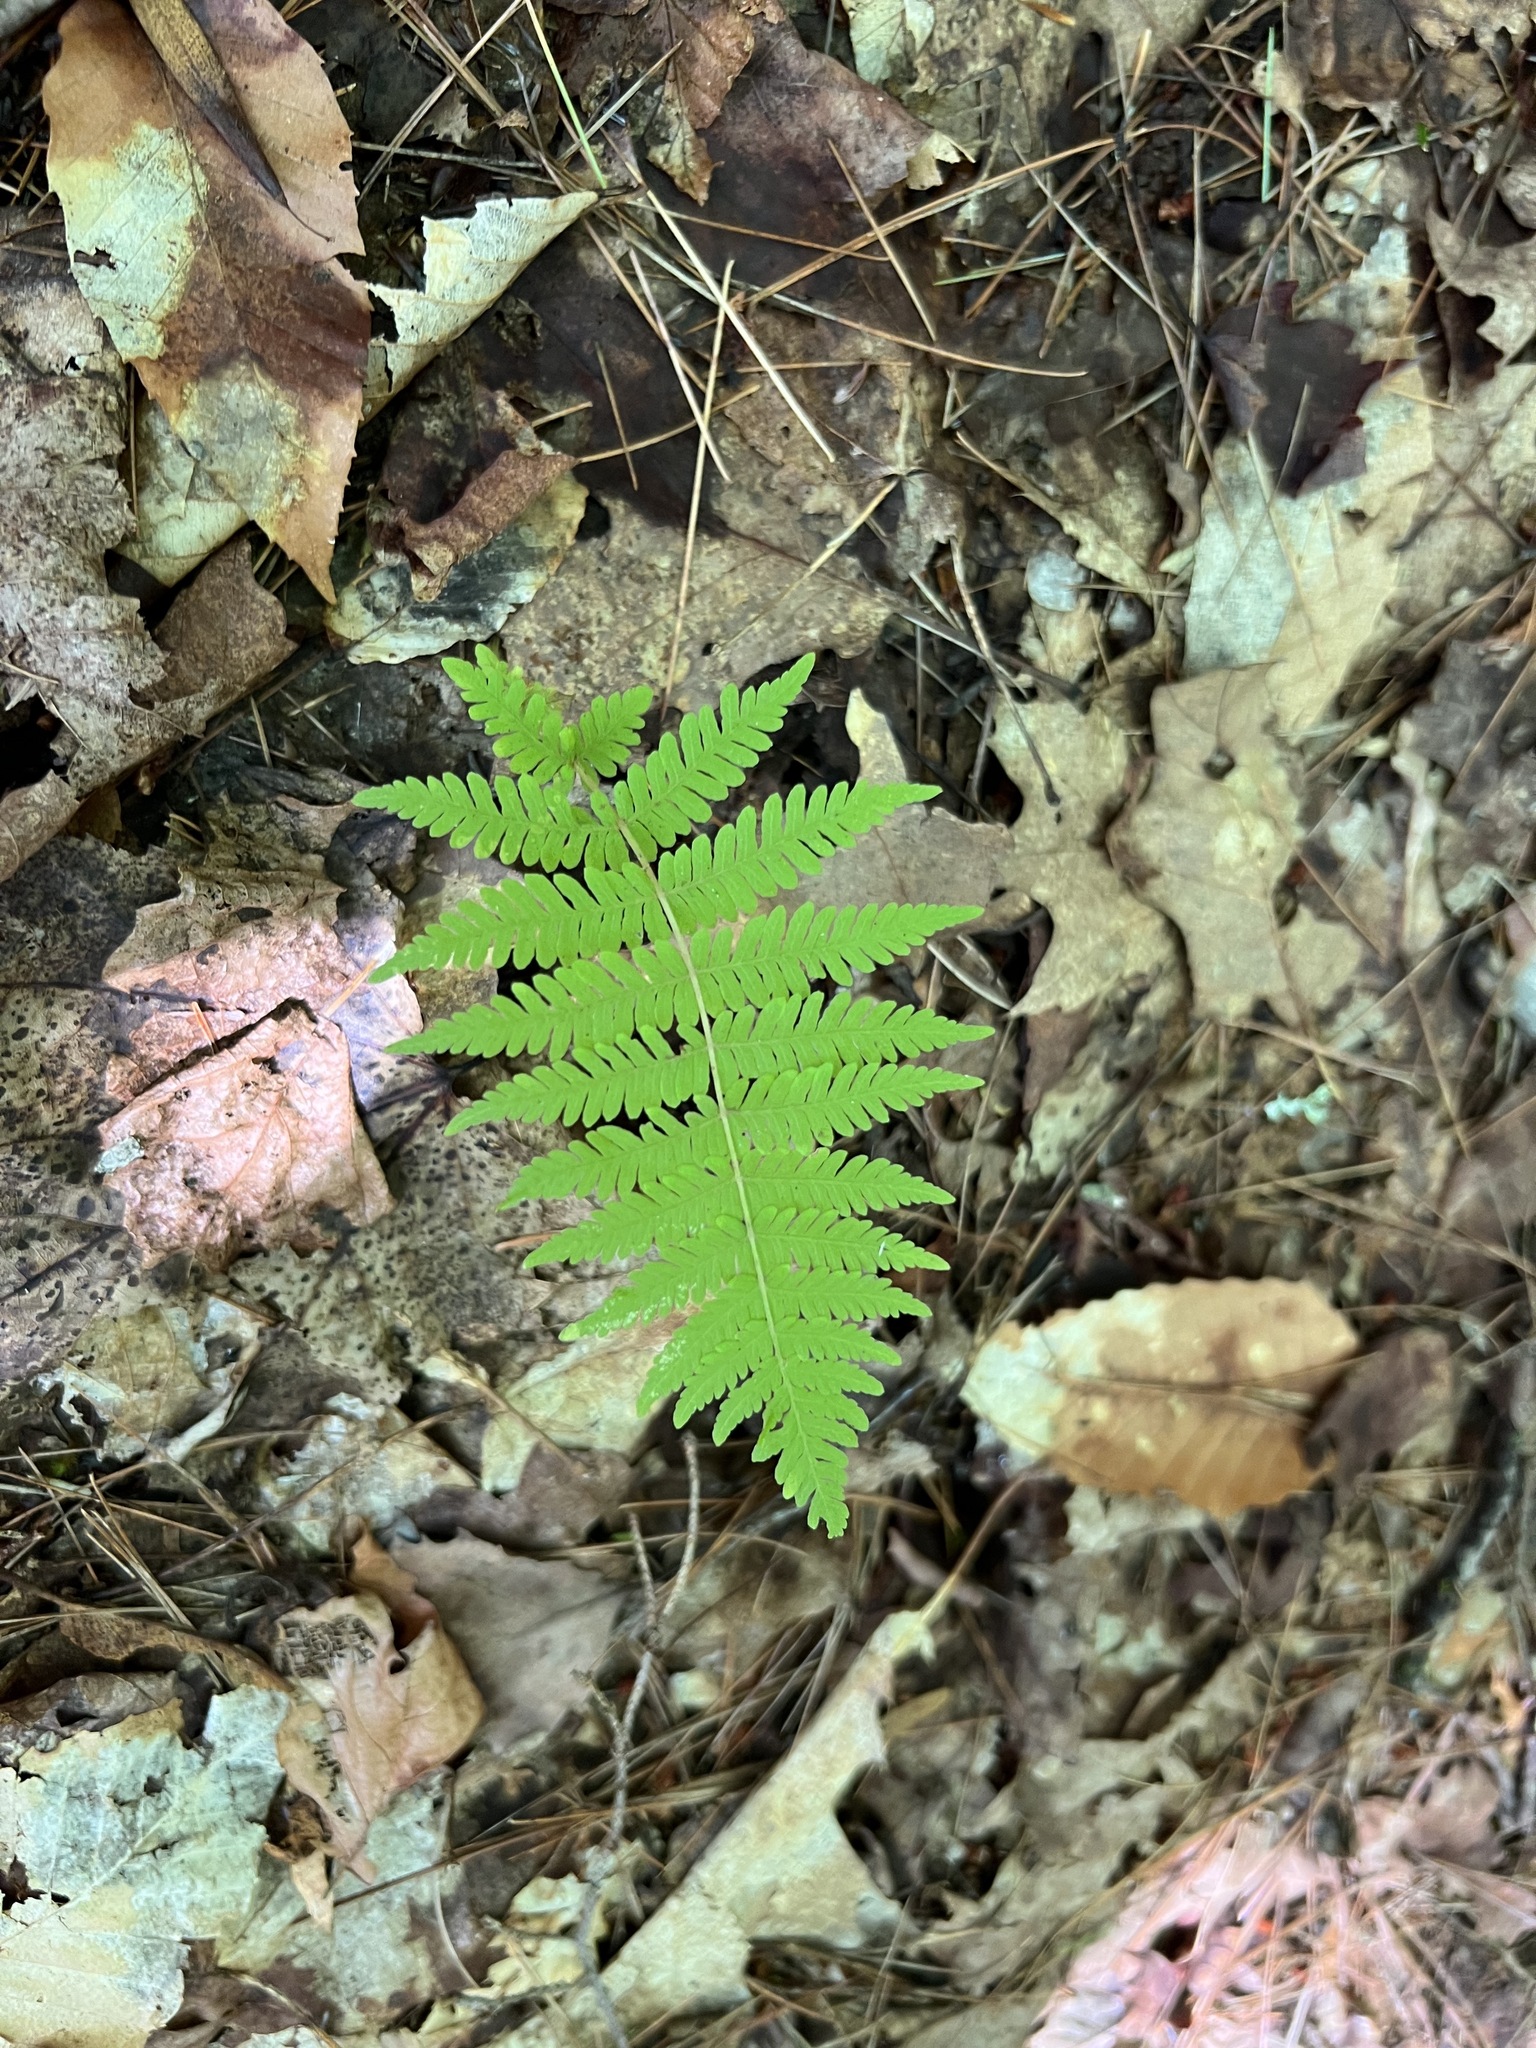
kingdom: Plantae
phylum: Tracheophyta
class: Polypodiopsida
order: Polypodiales
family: Thelypteridaceae
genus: Amauropelta
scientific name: Amauropelta noveboracensis
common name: New york fern
